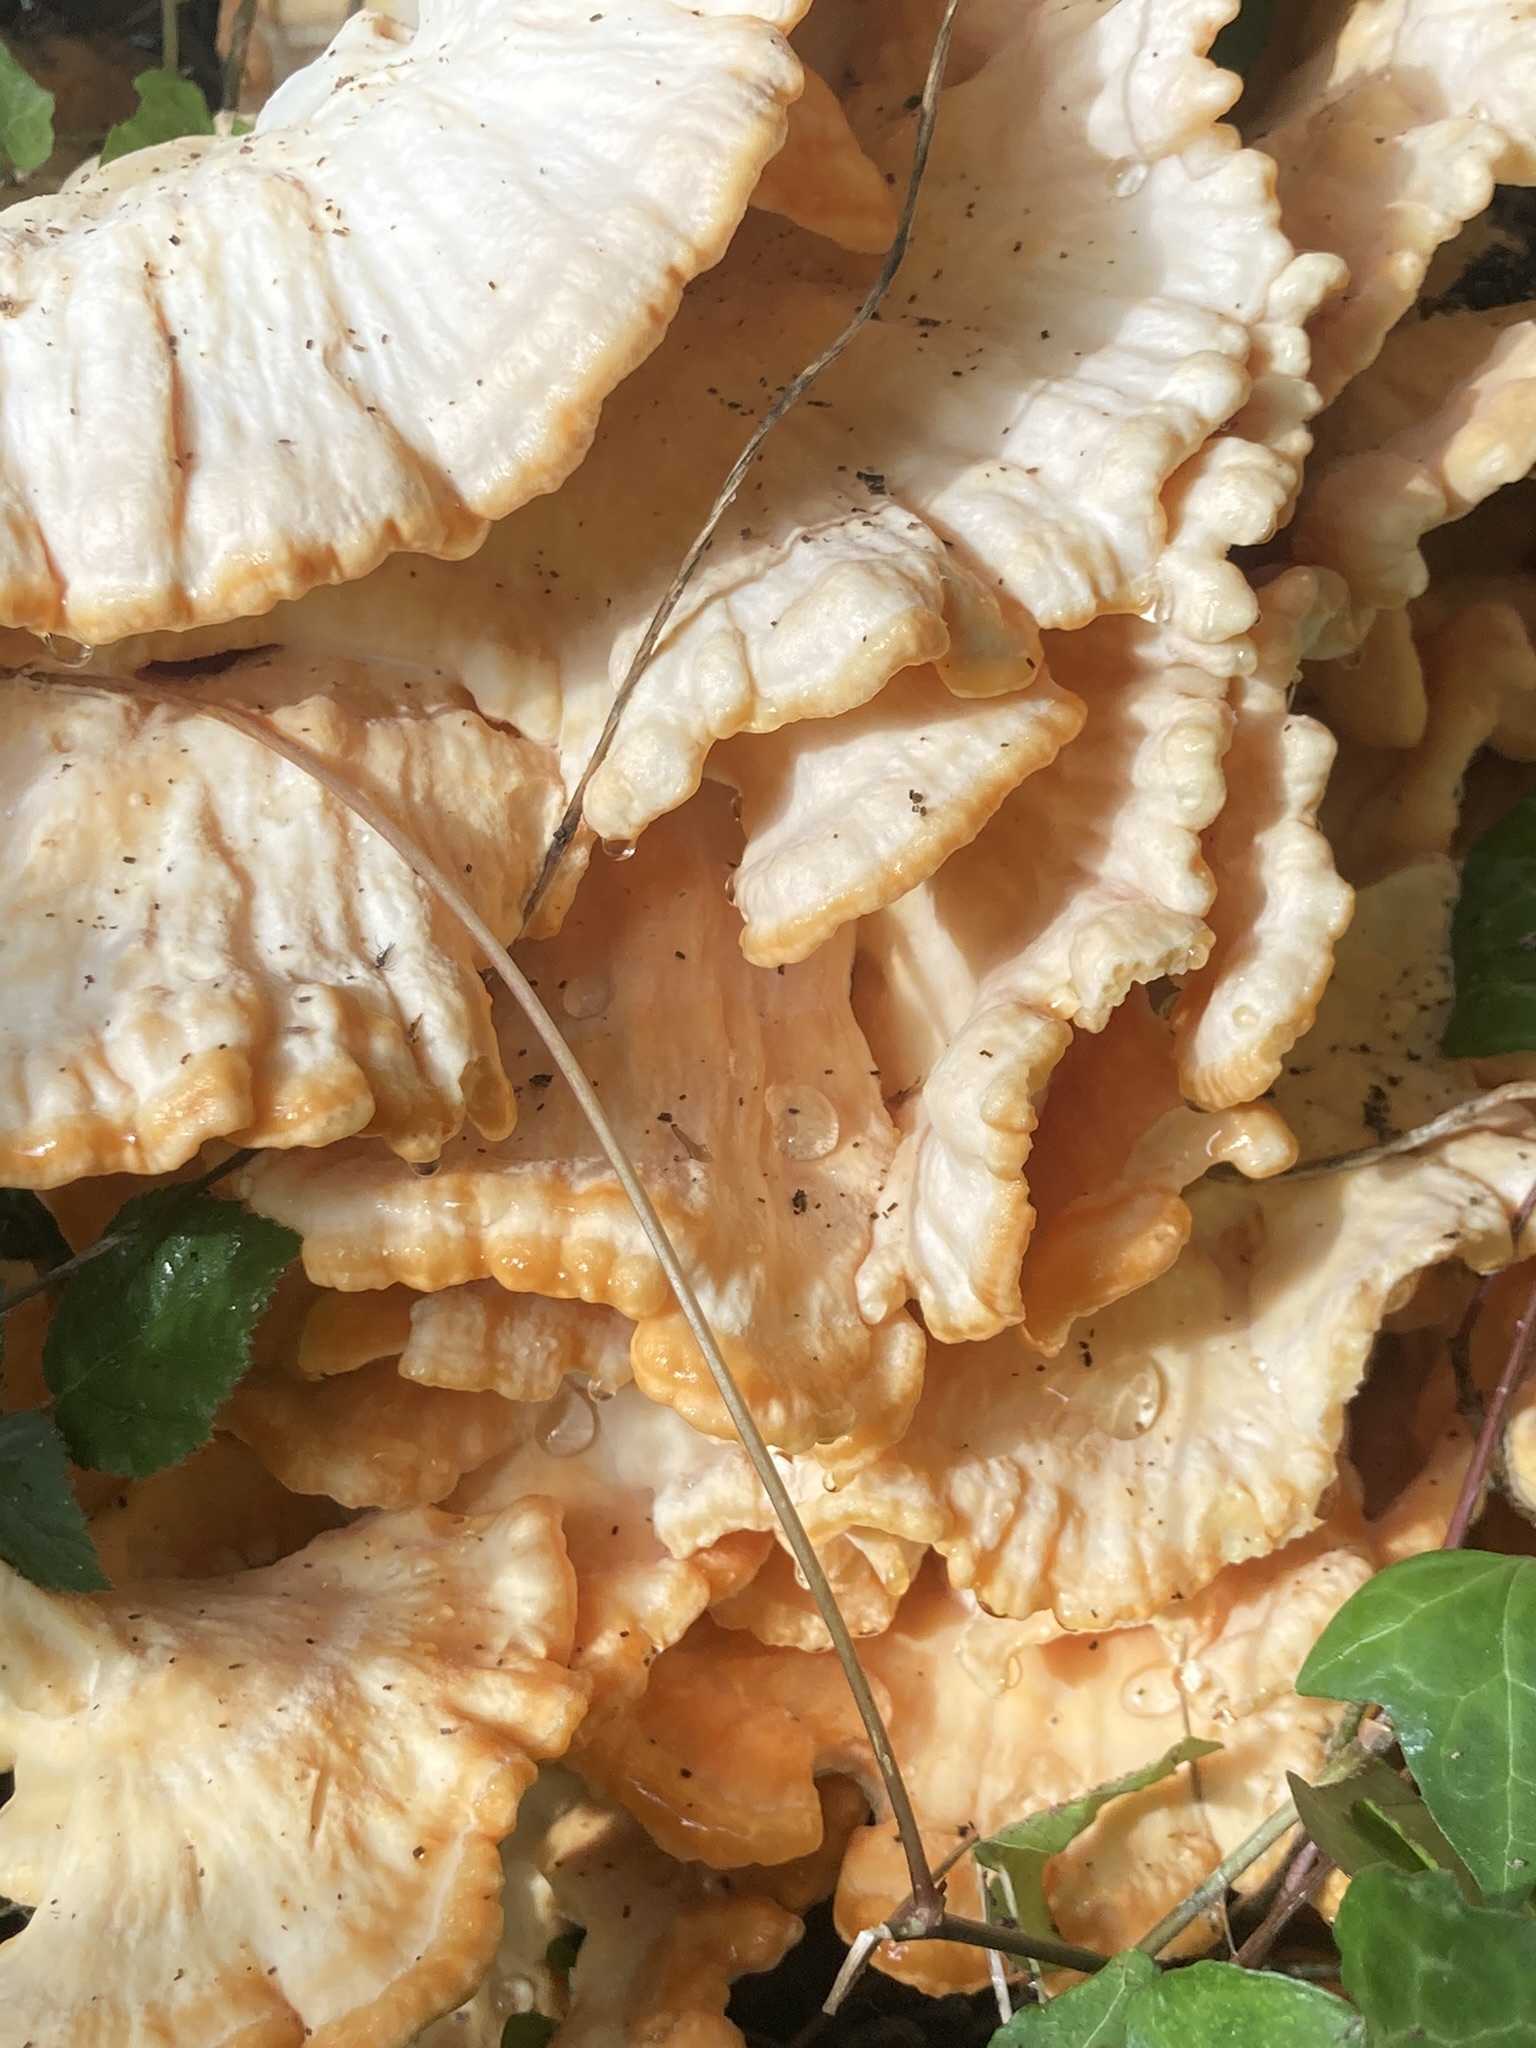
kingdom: Fungi
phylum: Basidiomycota
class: Agaricomycetes
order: Polyporales
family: Laetiporaceae
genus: Laetiporus
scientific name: Laetiporus sulphureus
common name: Chicken of the woods
